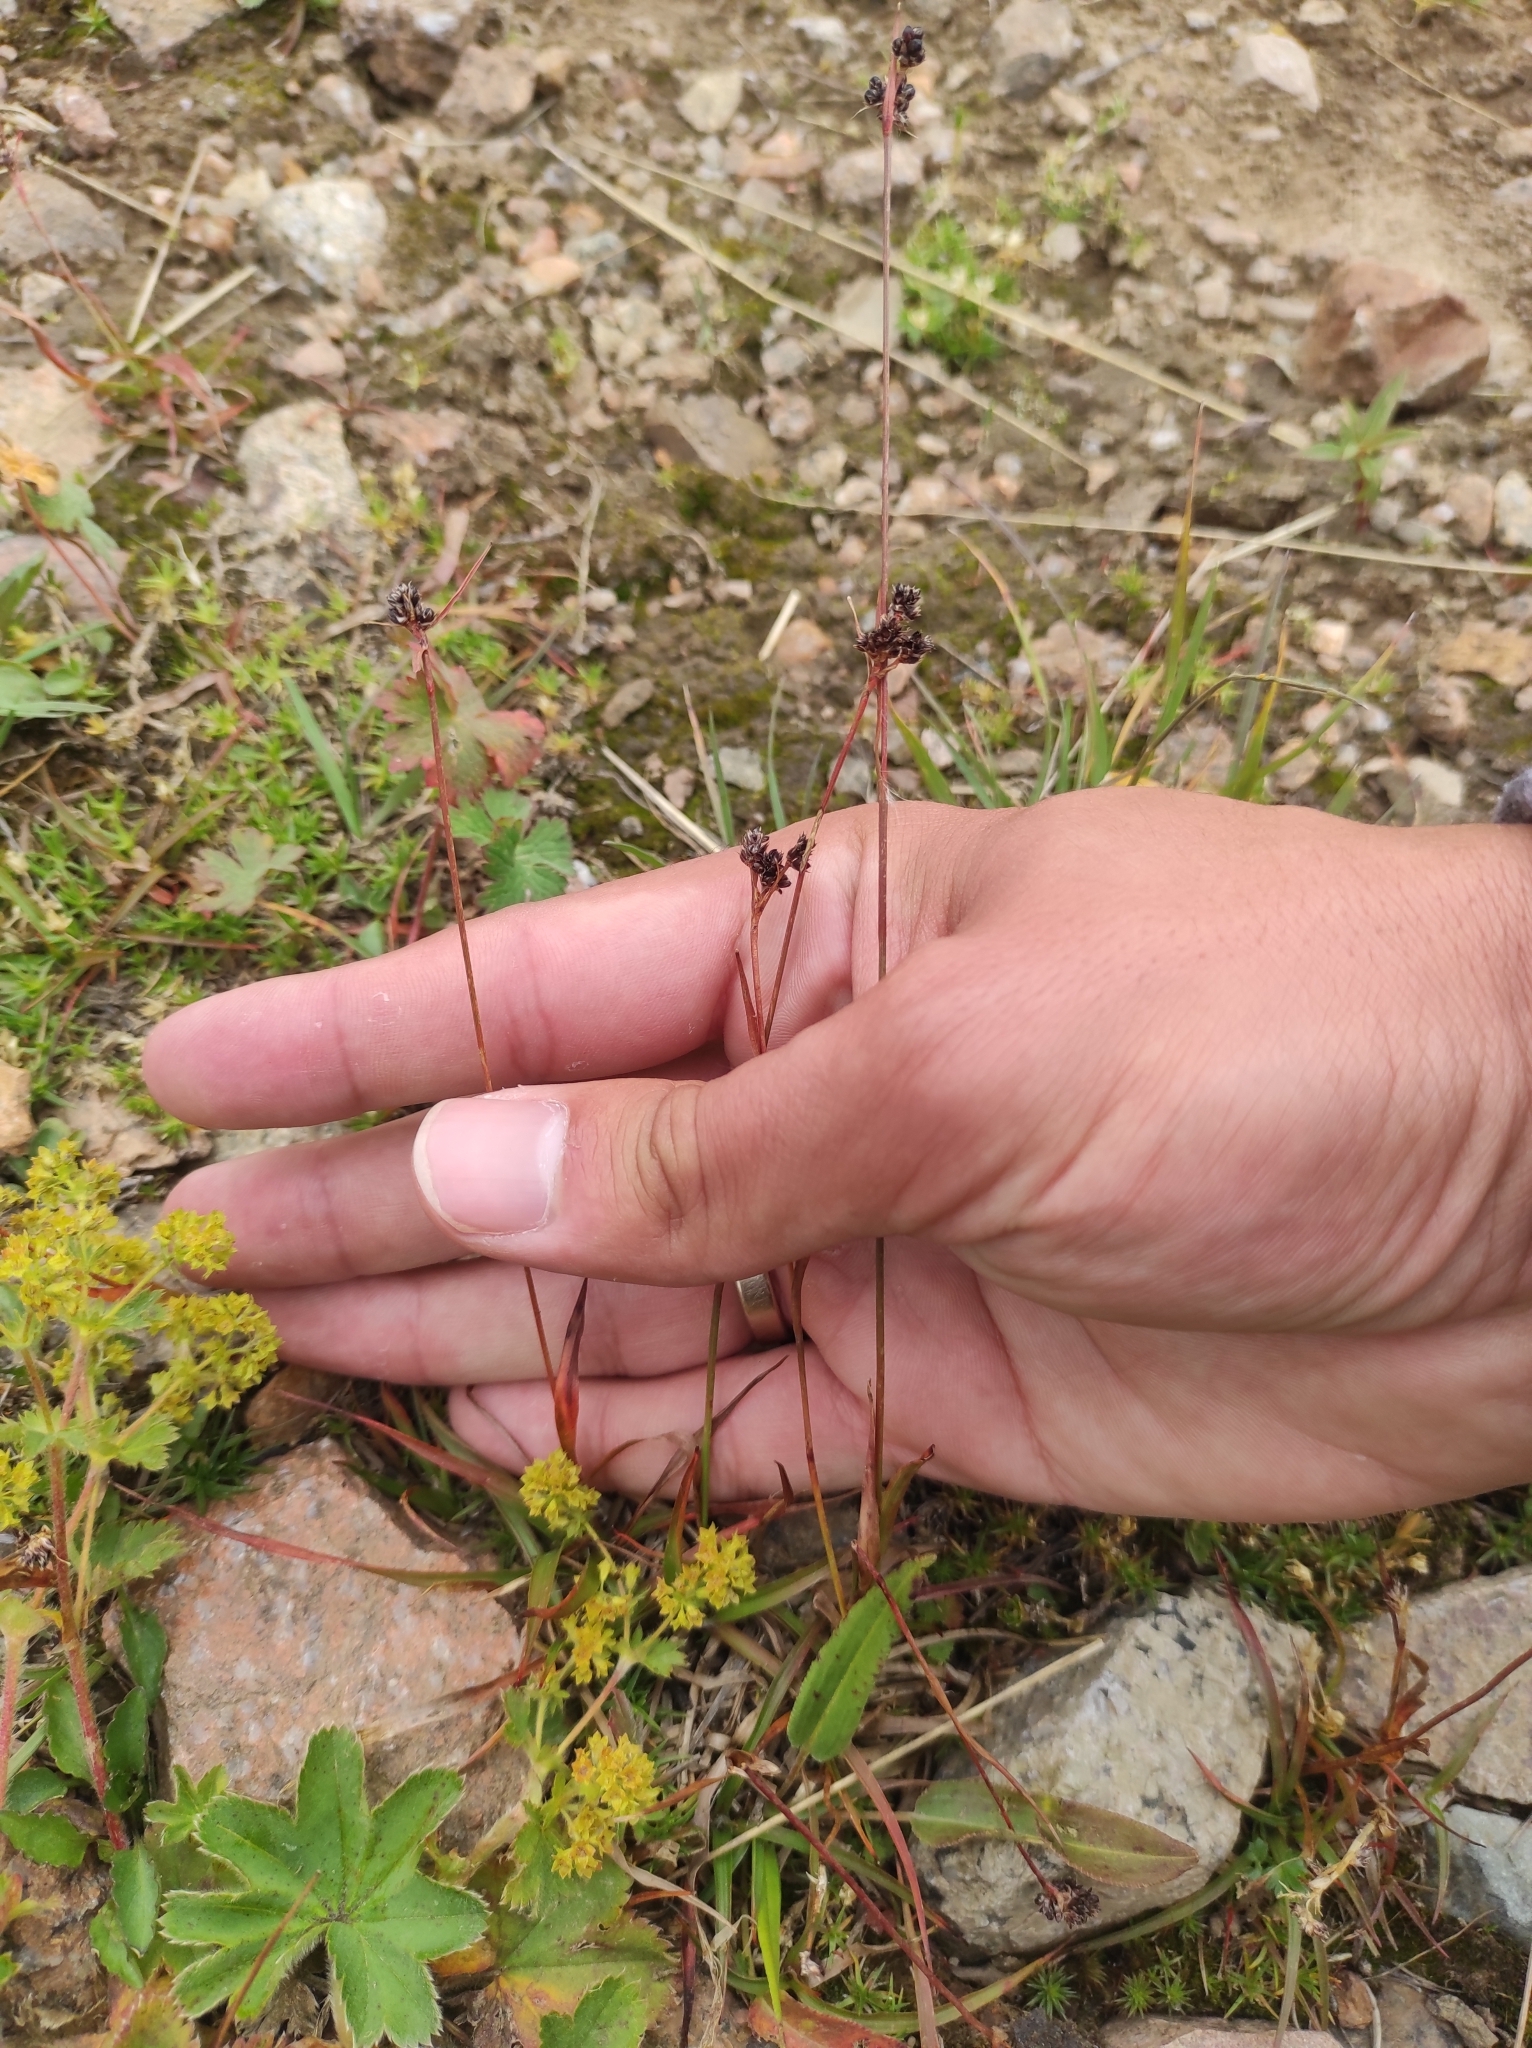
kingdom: Plantae
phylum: Tracheophyta
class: Liliopsida
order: Poales
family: Juncaceae
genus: Luzula
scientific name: Luzula multiflora
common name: Heath wood-rush
